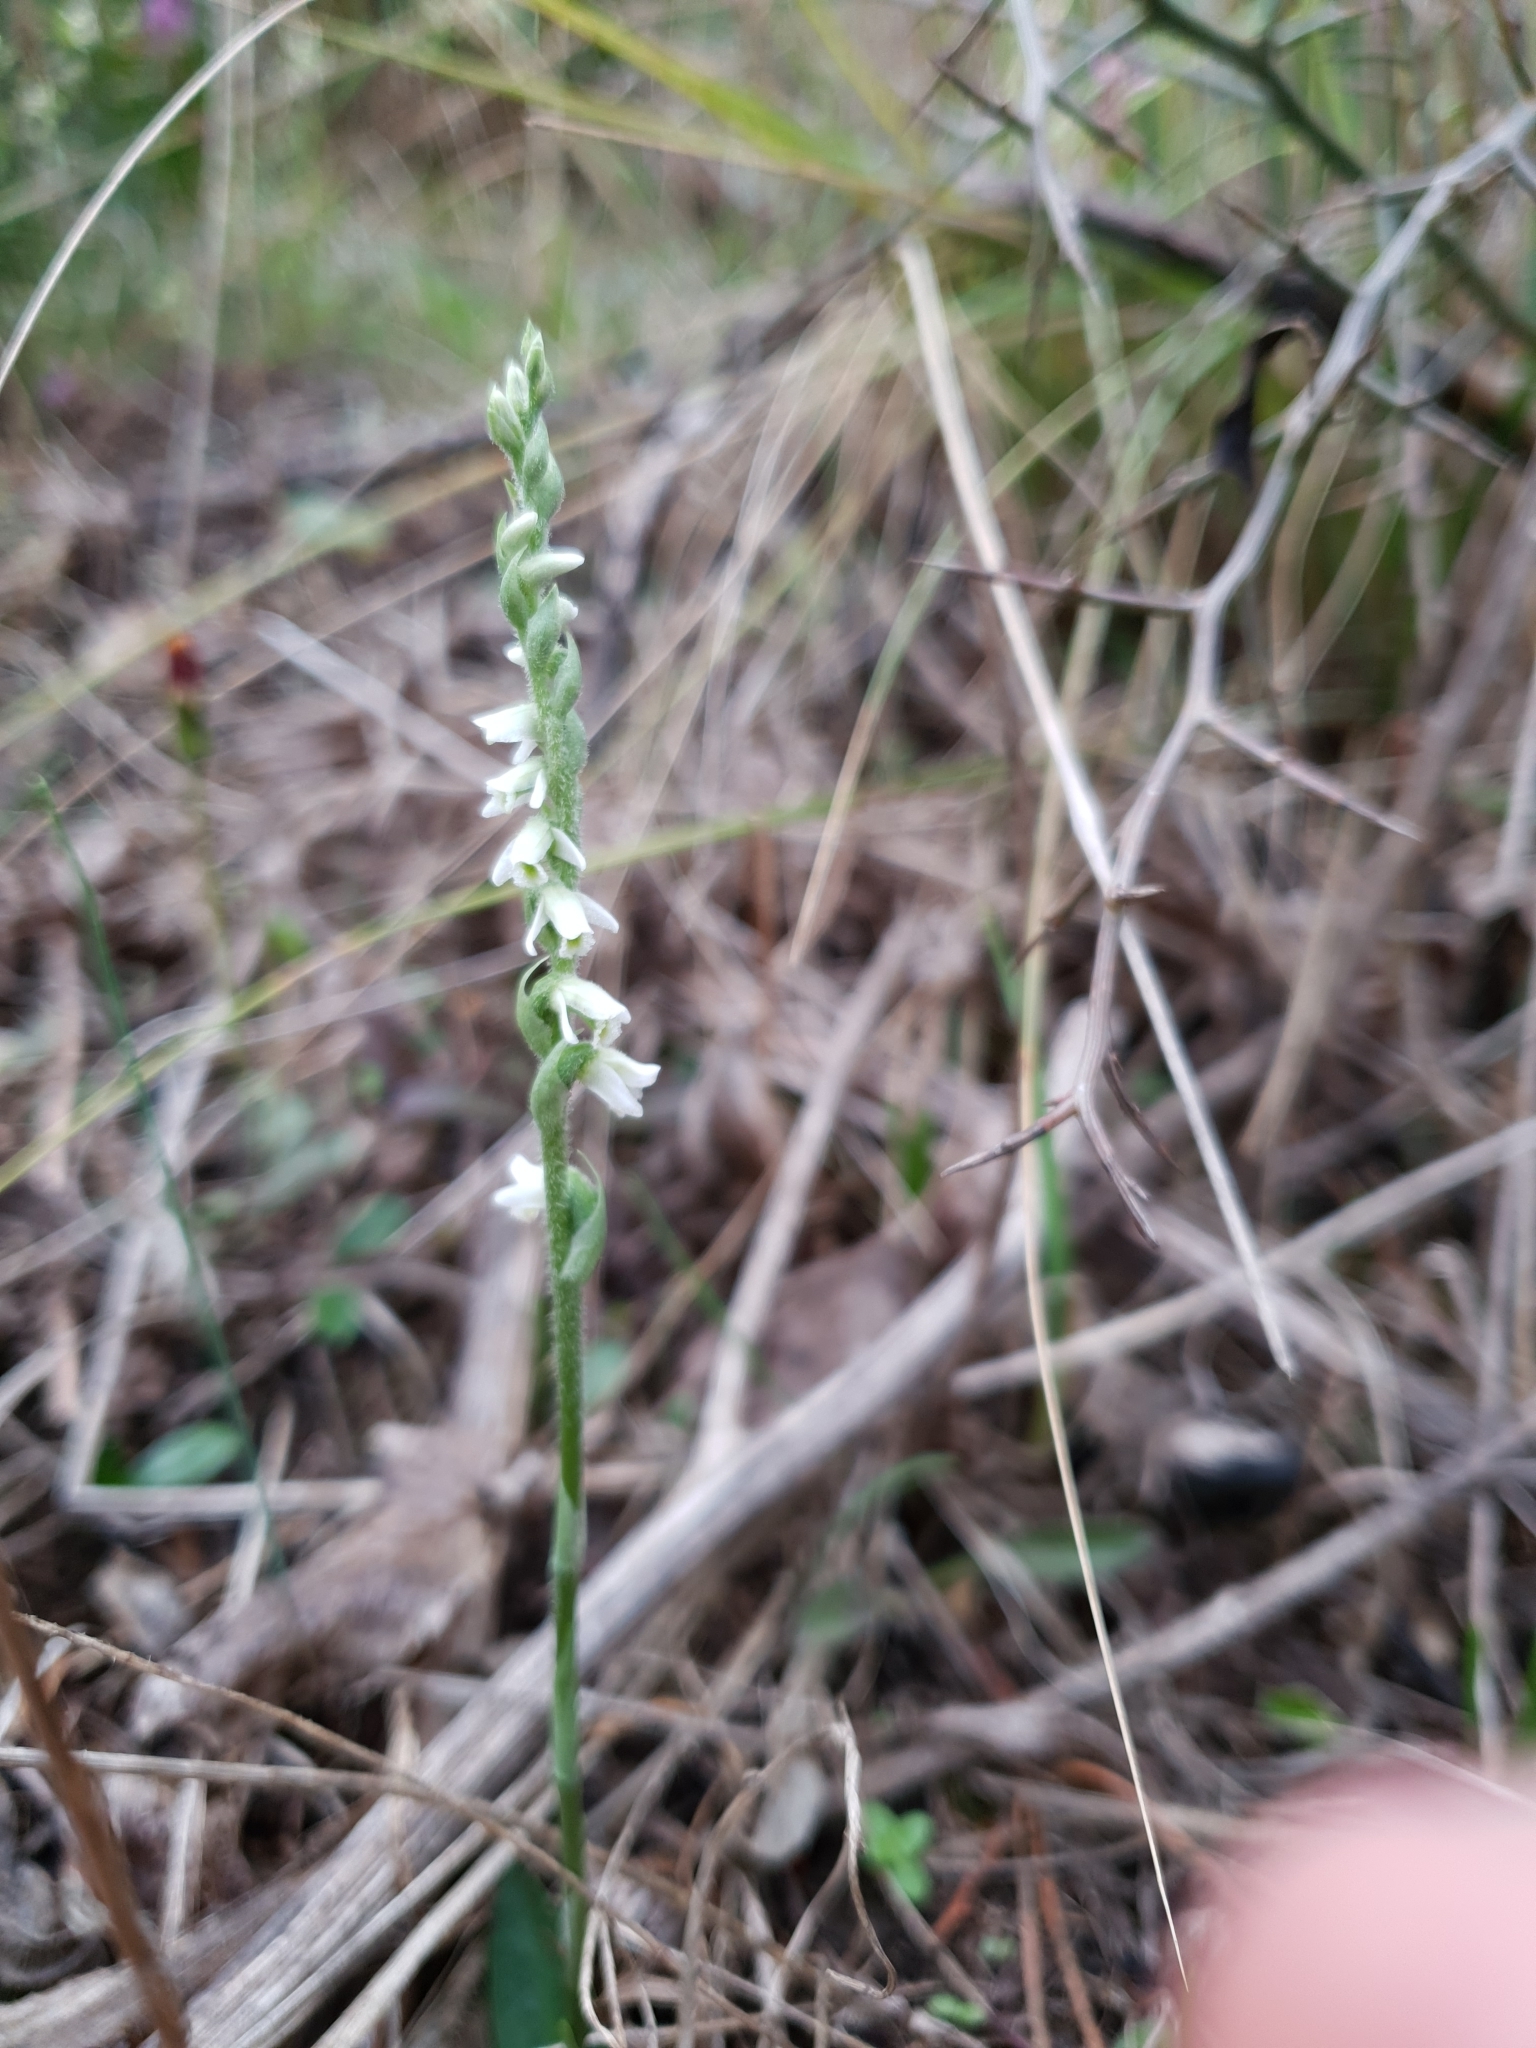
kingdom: Plantae
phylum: Tracheophyta
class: Liliopsida
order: Asparagales
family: Orchidaceae
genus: Spiranthes
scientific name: Spiranthes spiralis
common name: Autumn lady's-tresses
